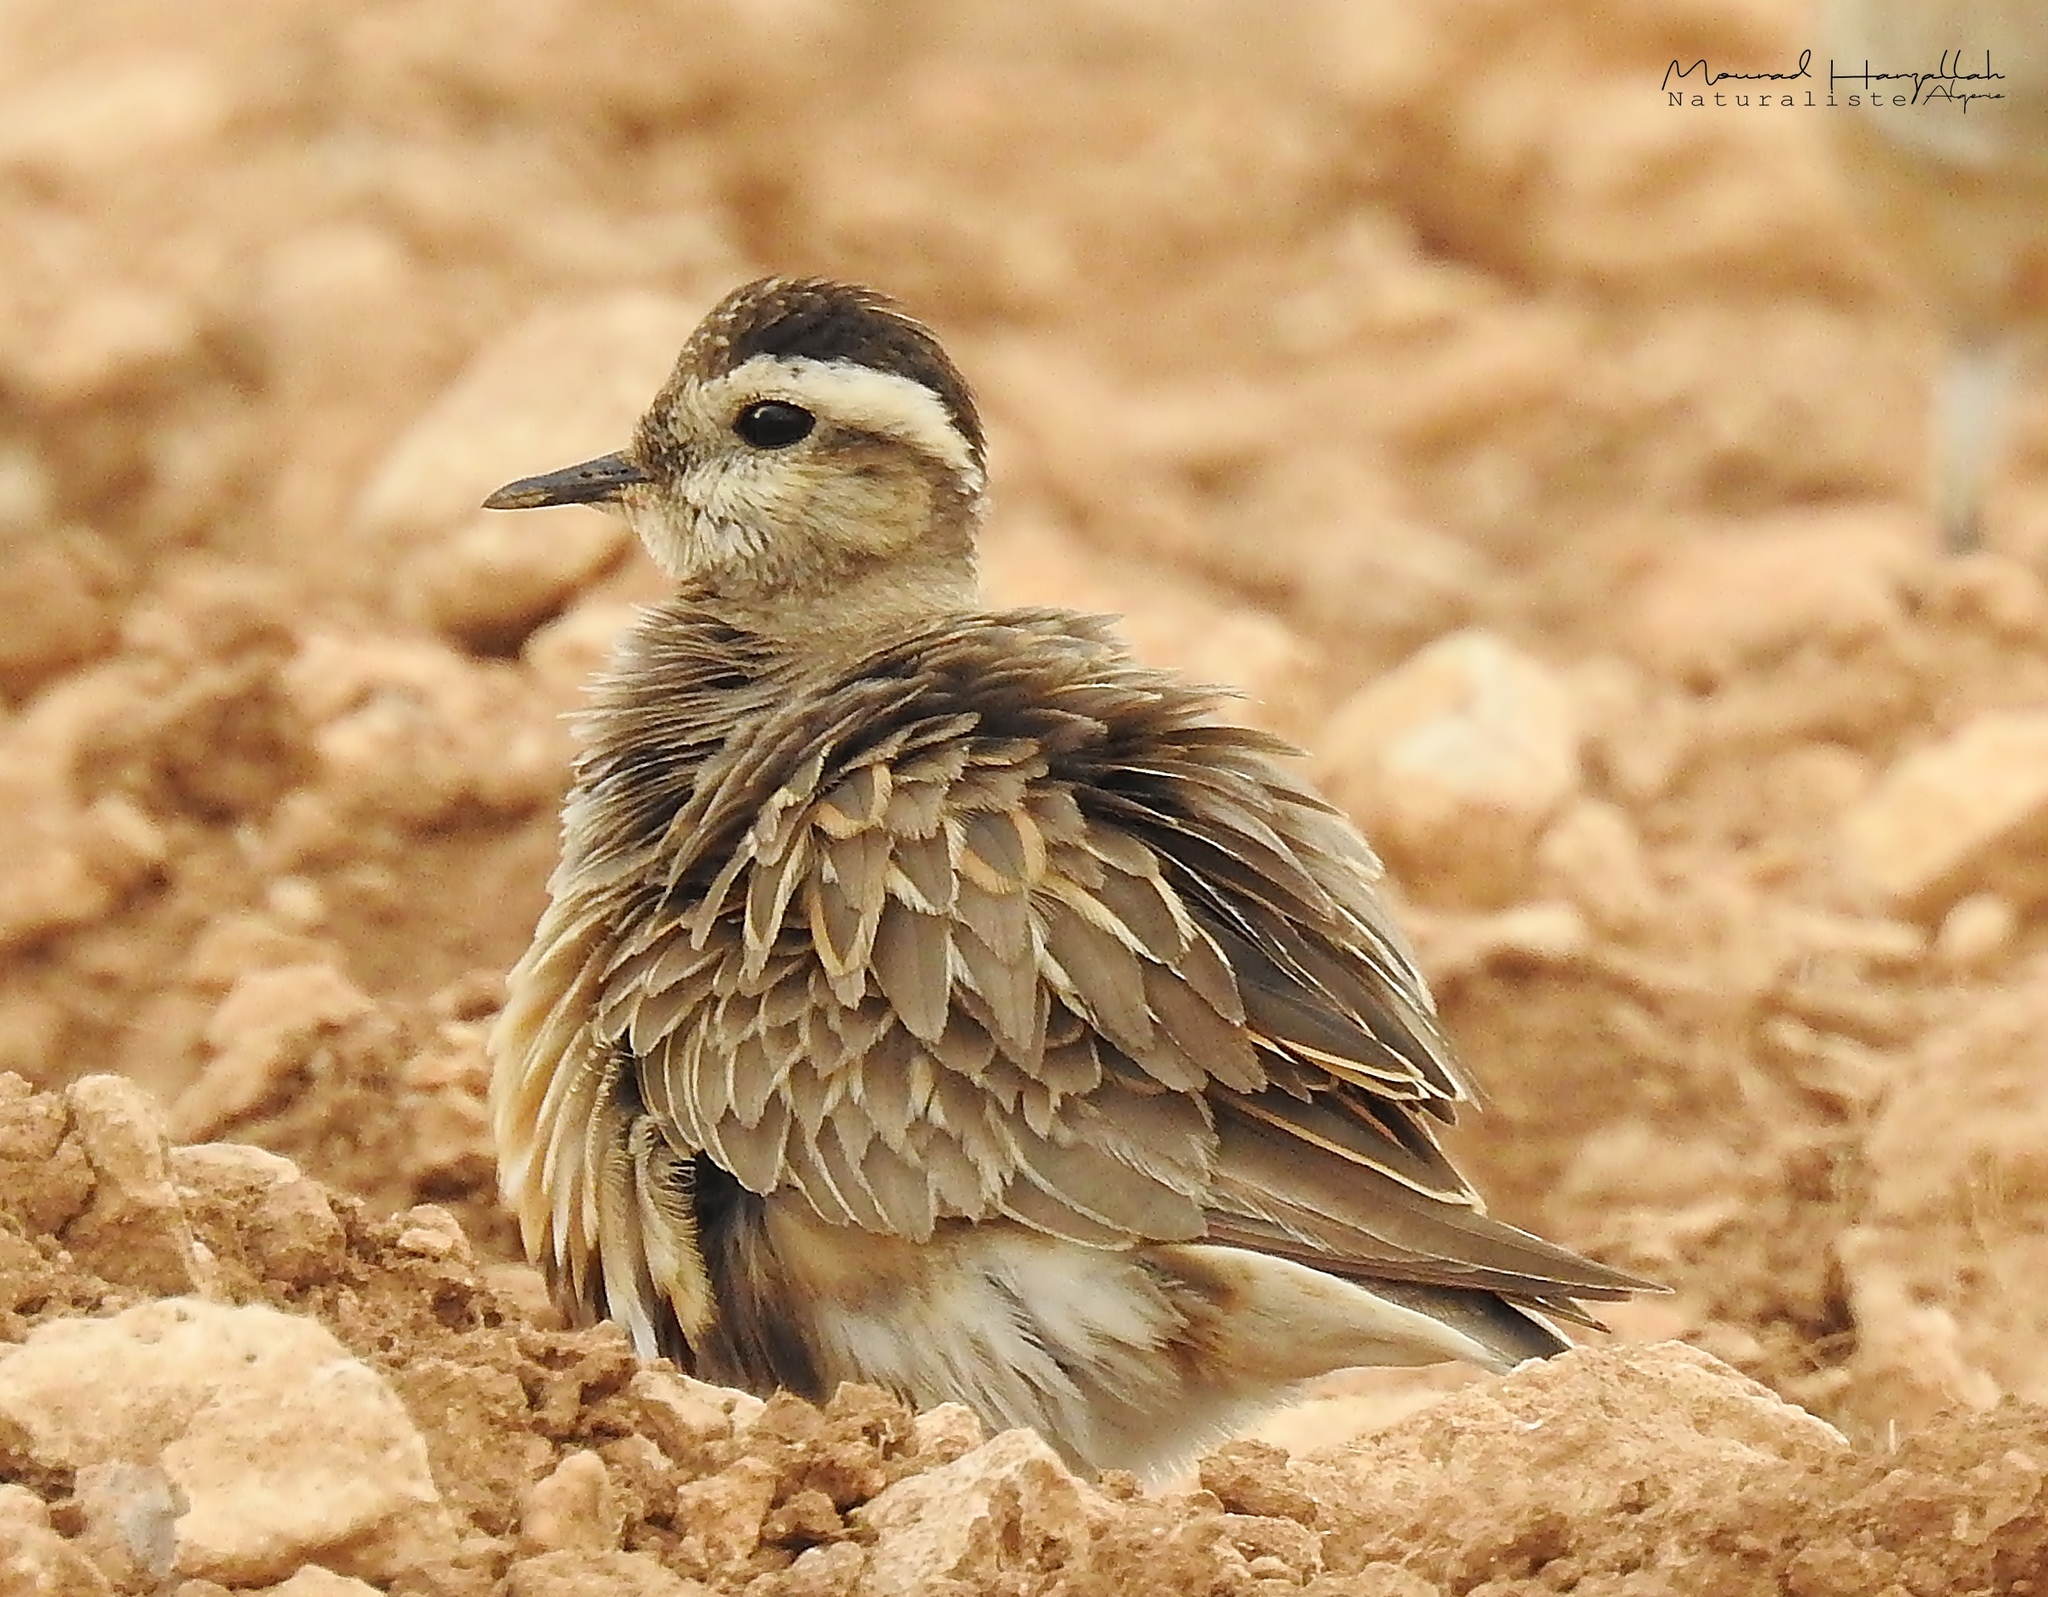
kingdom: Animalia
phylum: Chordata
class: Aves
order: Charadriiformes
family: Charadriidae
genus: Charadrius
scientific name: Charadrius morinellus
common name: Eurasian dotterel
